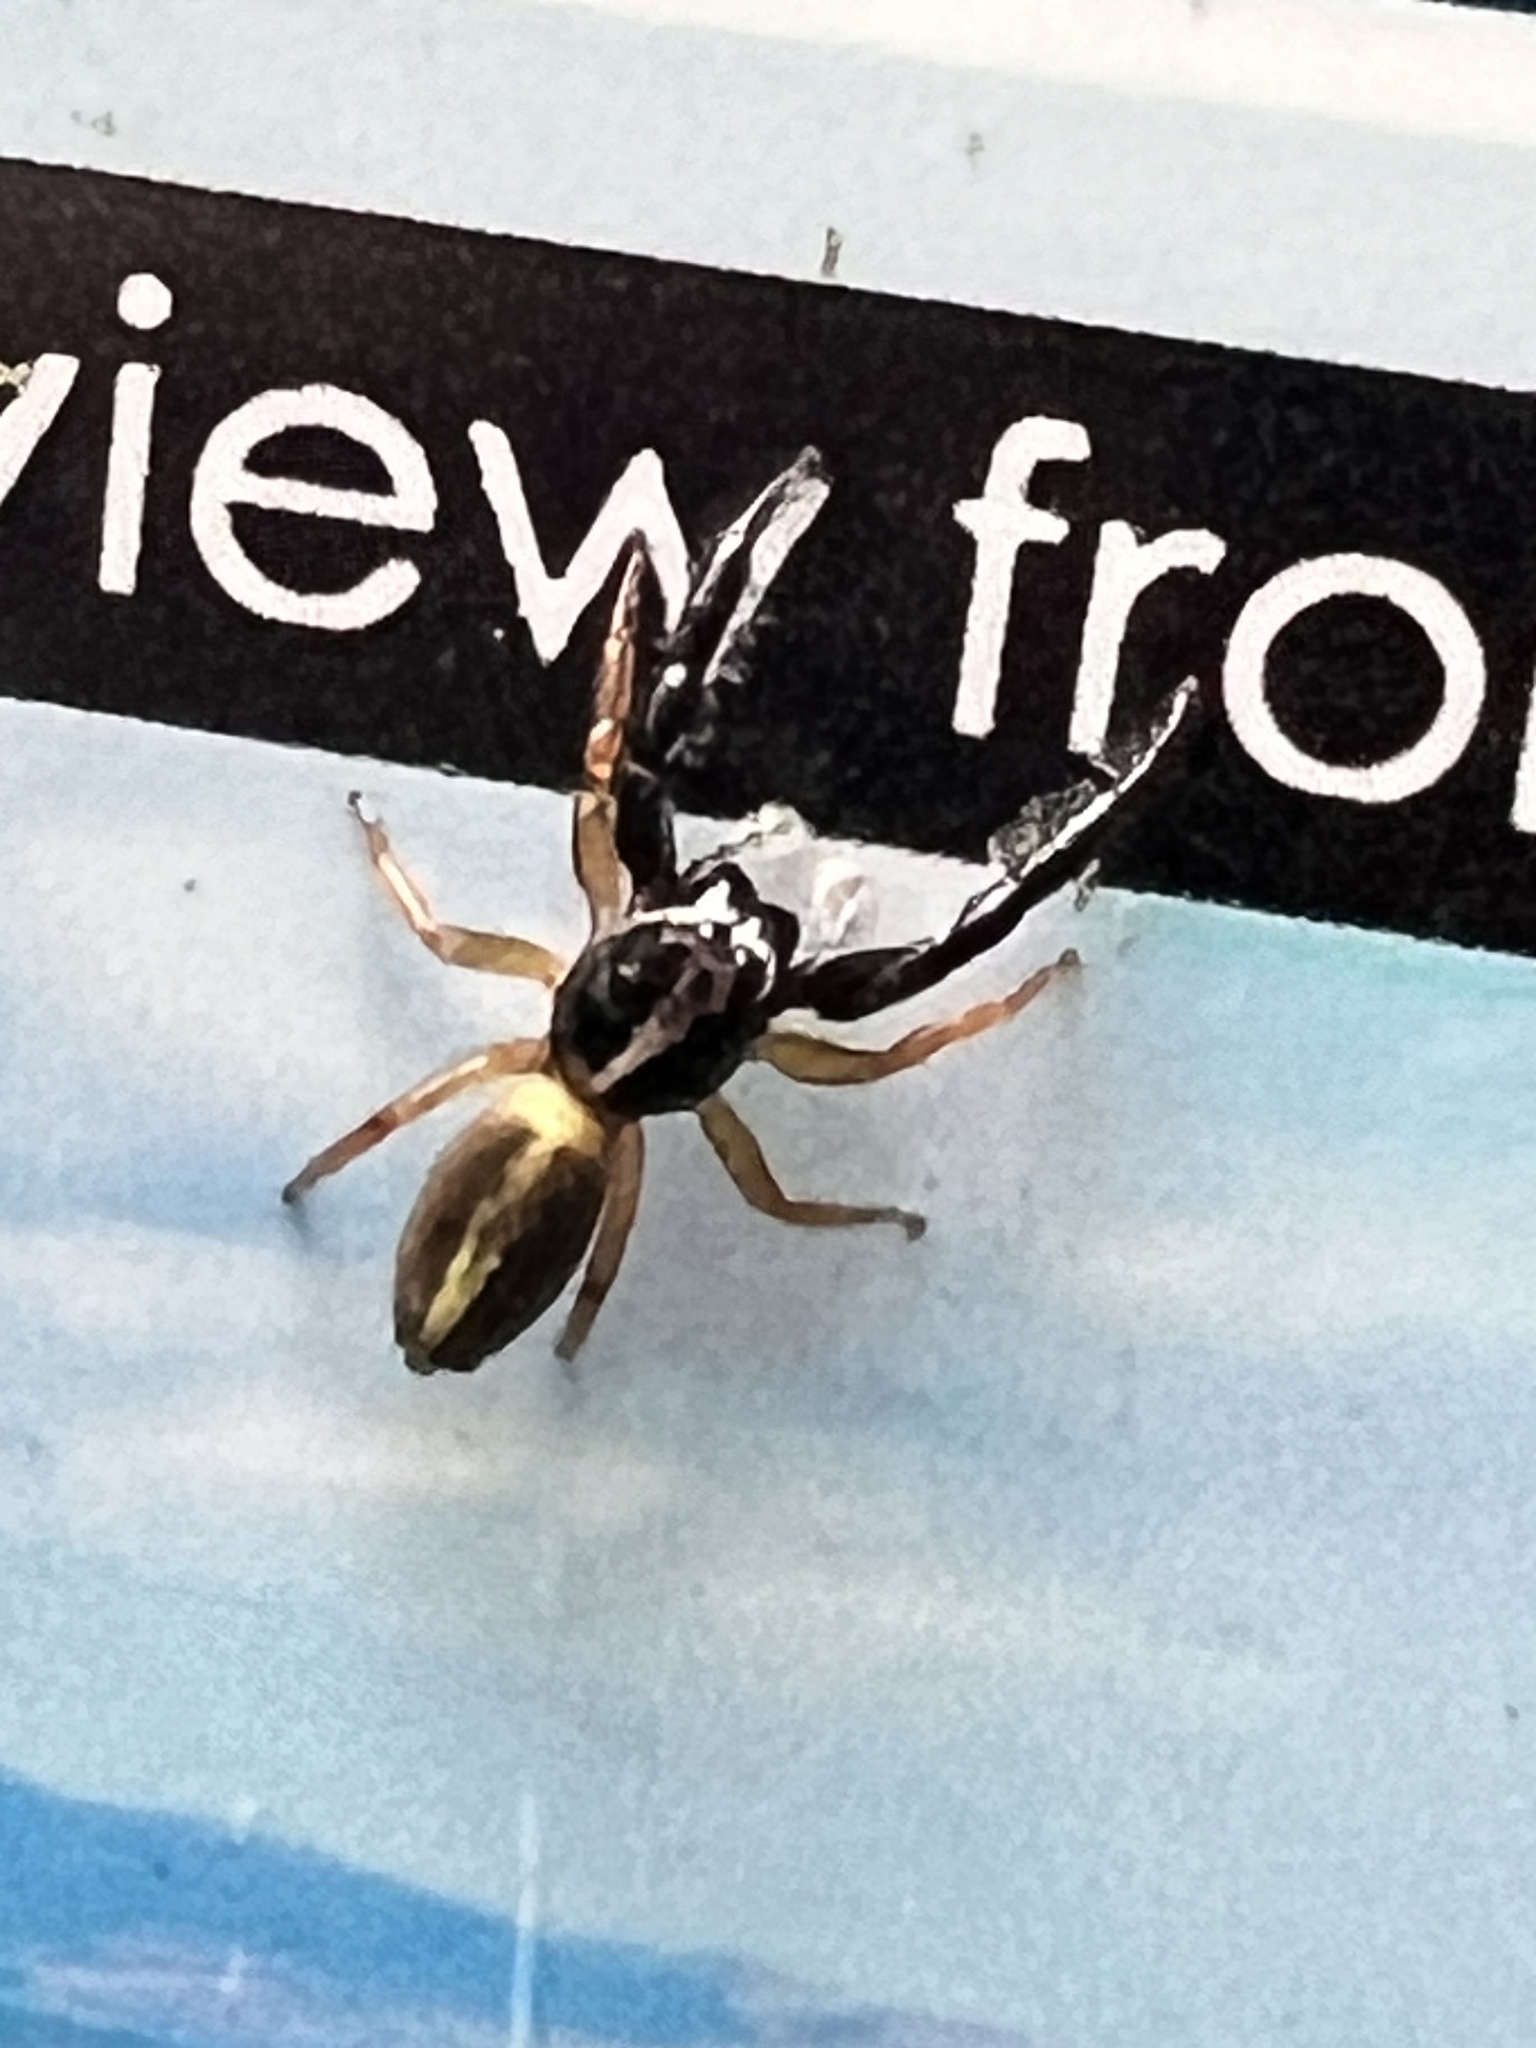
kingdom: Animalia
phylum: Arthropoda
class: Arachnida
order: Araneae
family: Salticidae
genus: Trite
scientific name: Trite planiceps
